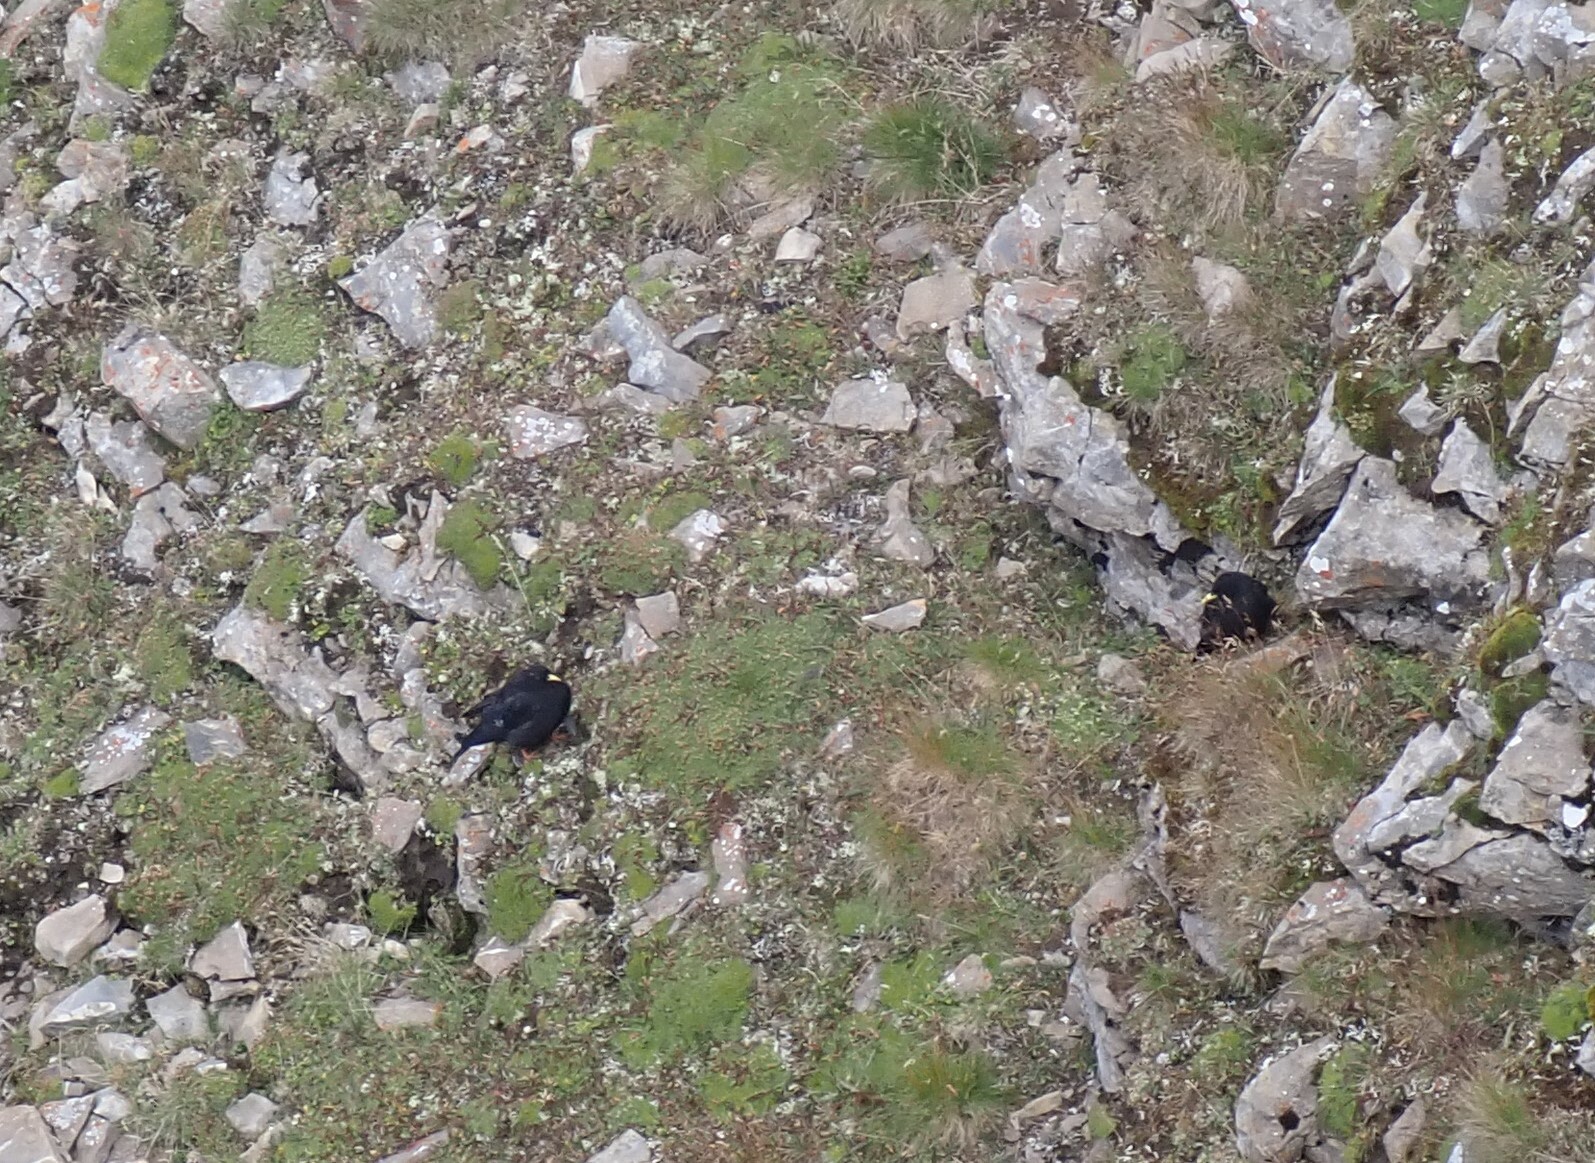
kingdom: Animalia
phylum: Chordata
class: Aves
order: Passeriformes
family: Corvidae
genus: Pyrrhocorax
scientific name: Pyrrhocorax graculus
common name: Alpine chough
